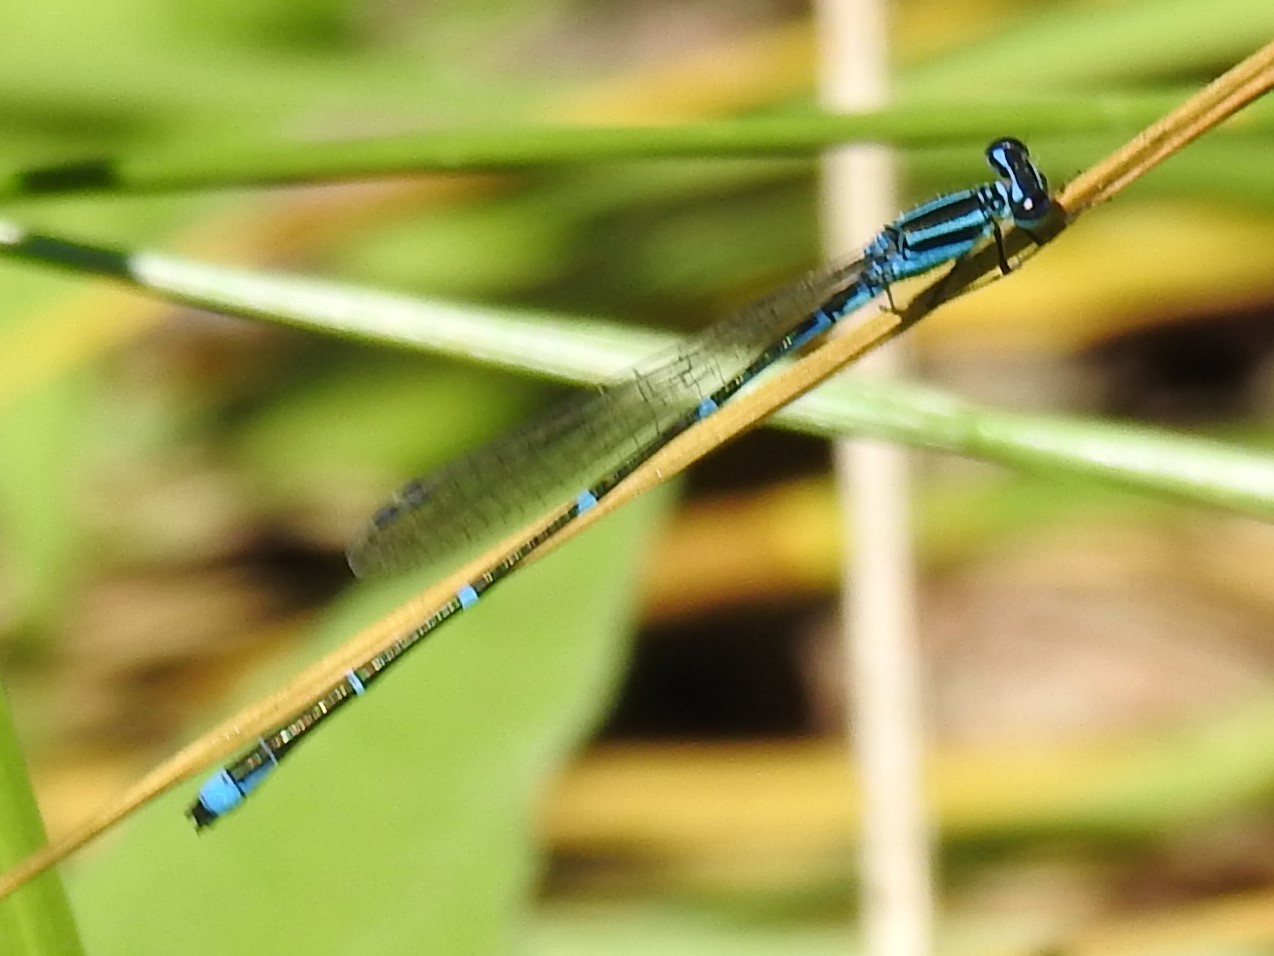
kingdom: Animalia
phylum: Arthropoda
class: Insecta
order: Odonata
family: Coenagrionidae
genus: Enallagma
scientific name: Enallagma exsulans
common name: Stream bluet
